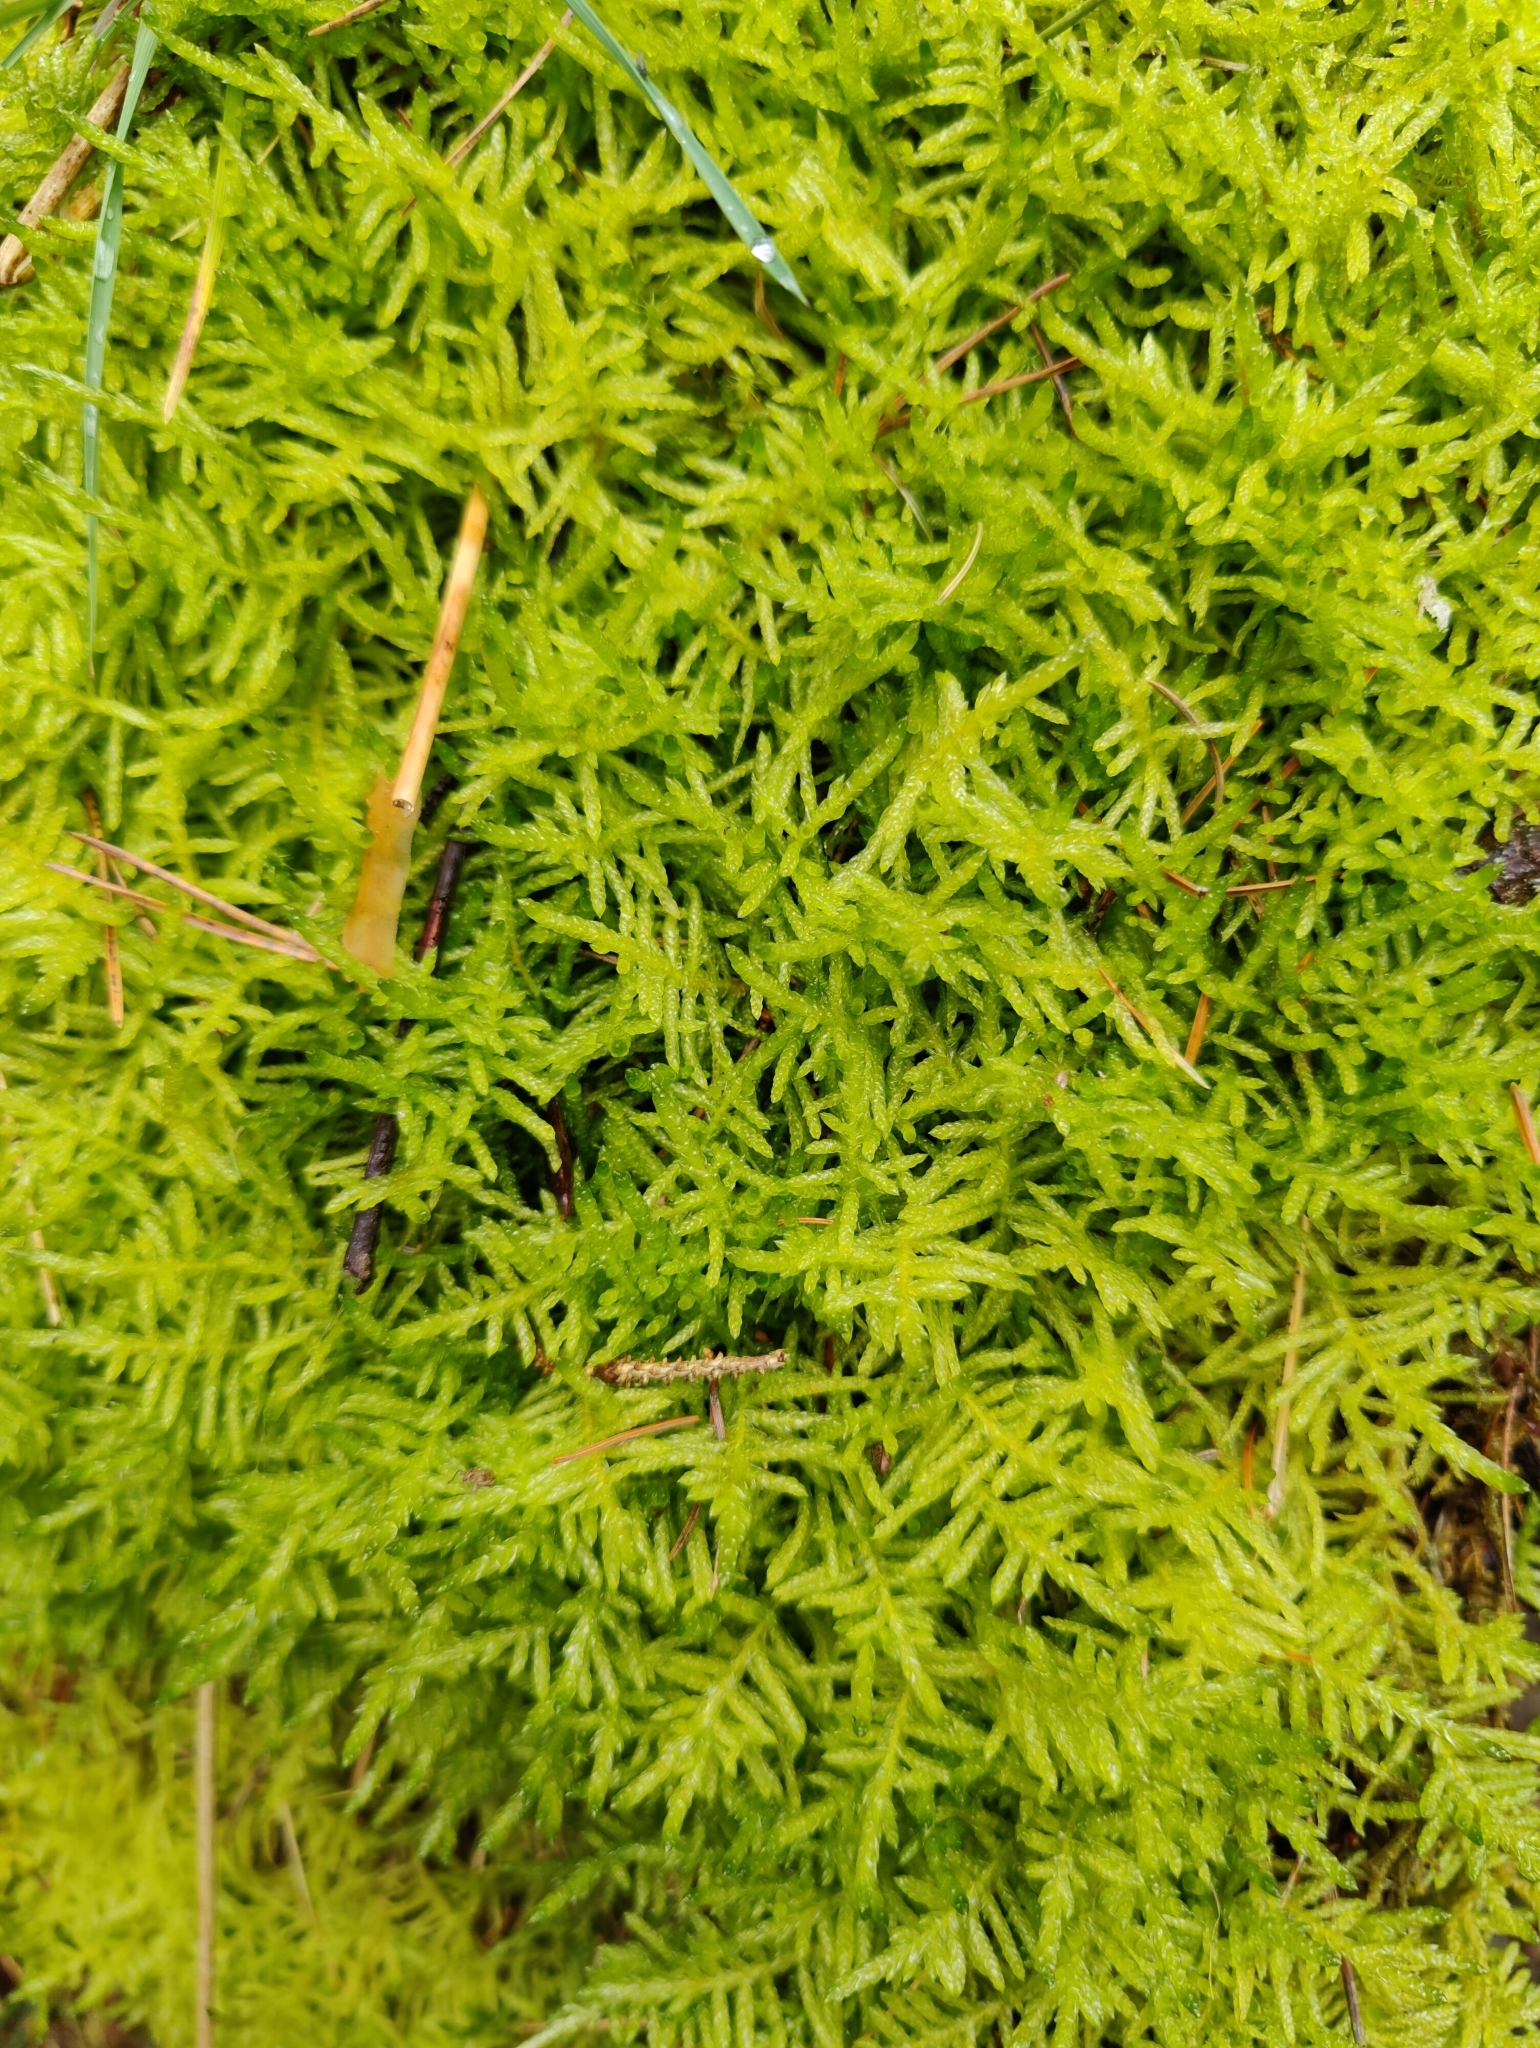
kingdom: Plantae
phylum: Bryophyta
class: Bryopsida
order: Hypnales
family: Brachytheciaceae
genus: Pseudoscleropodium
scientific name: Pseudoscleropodium purum
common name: Neat feather-moss
